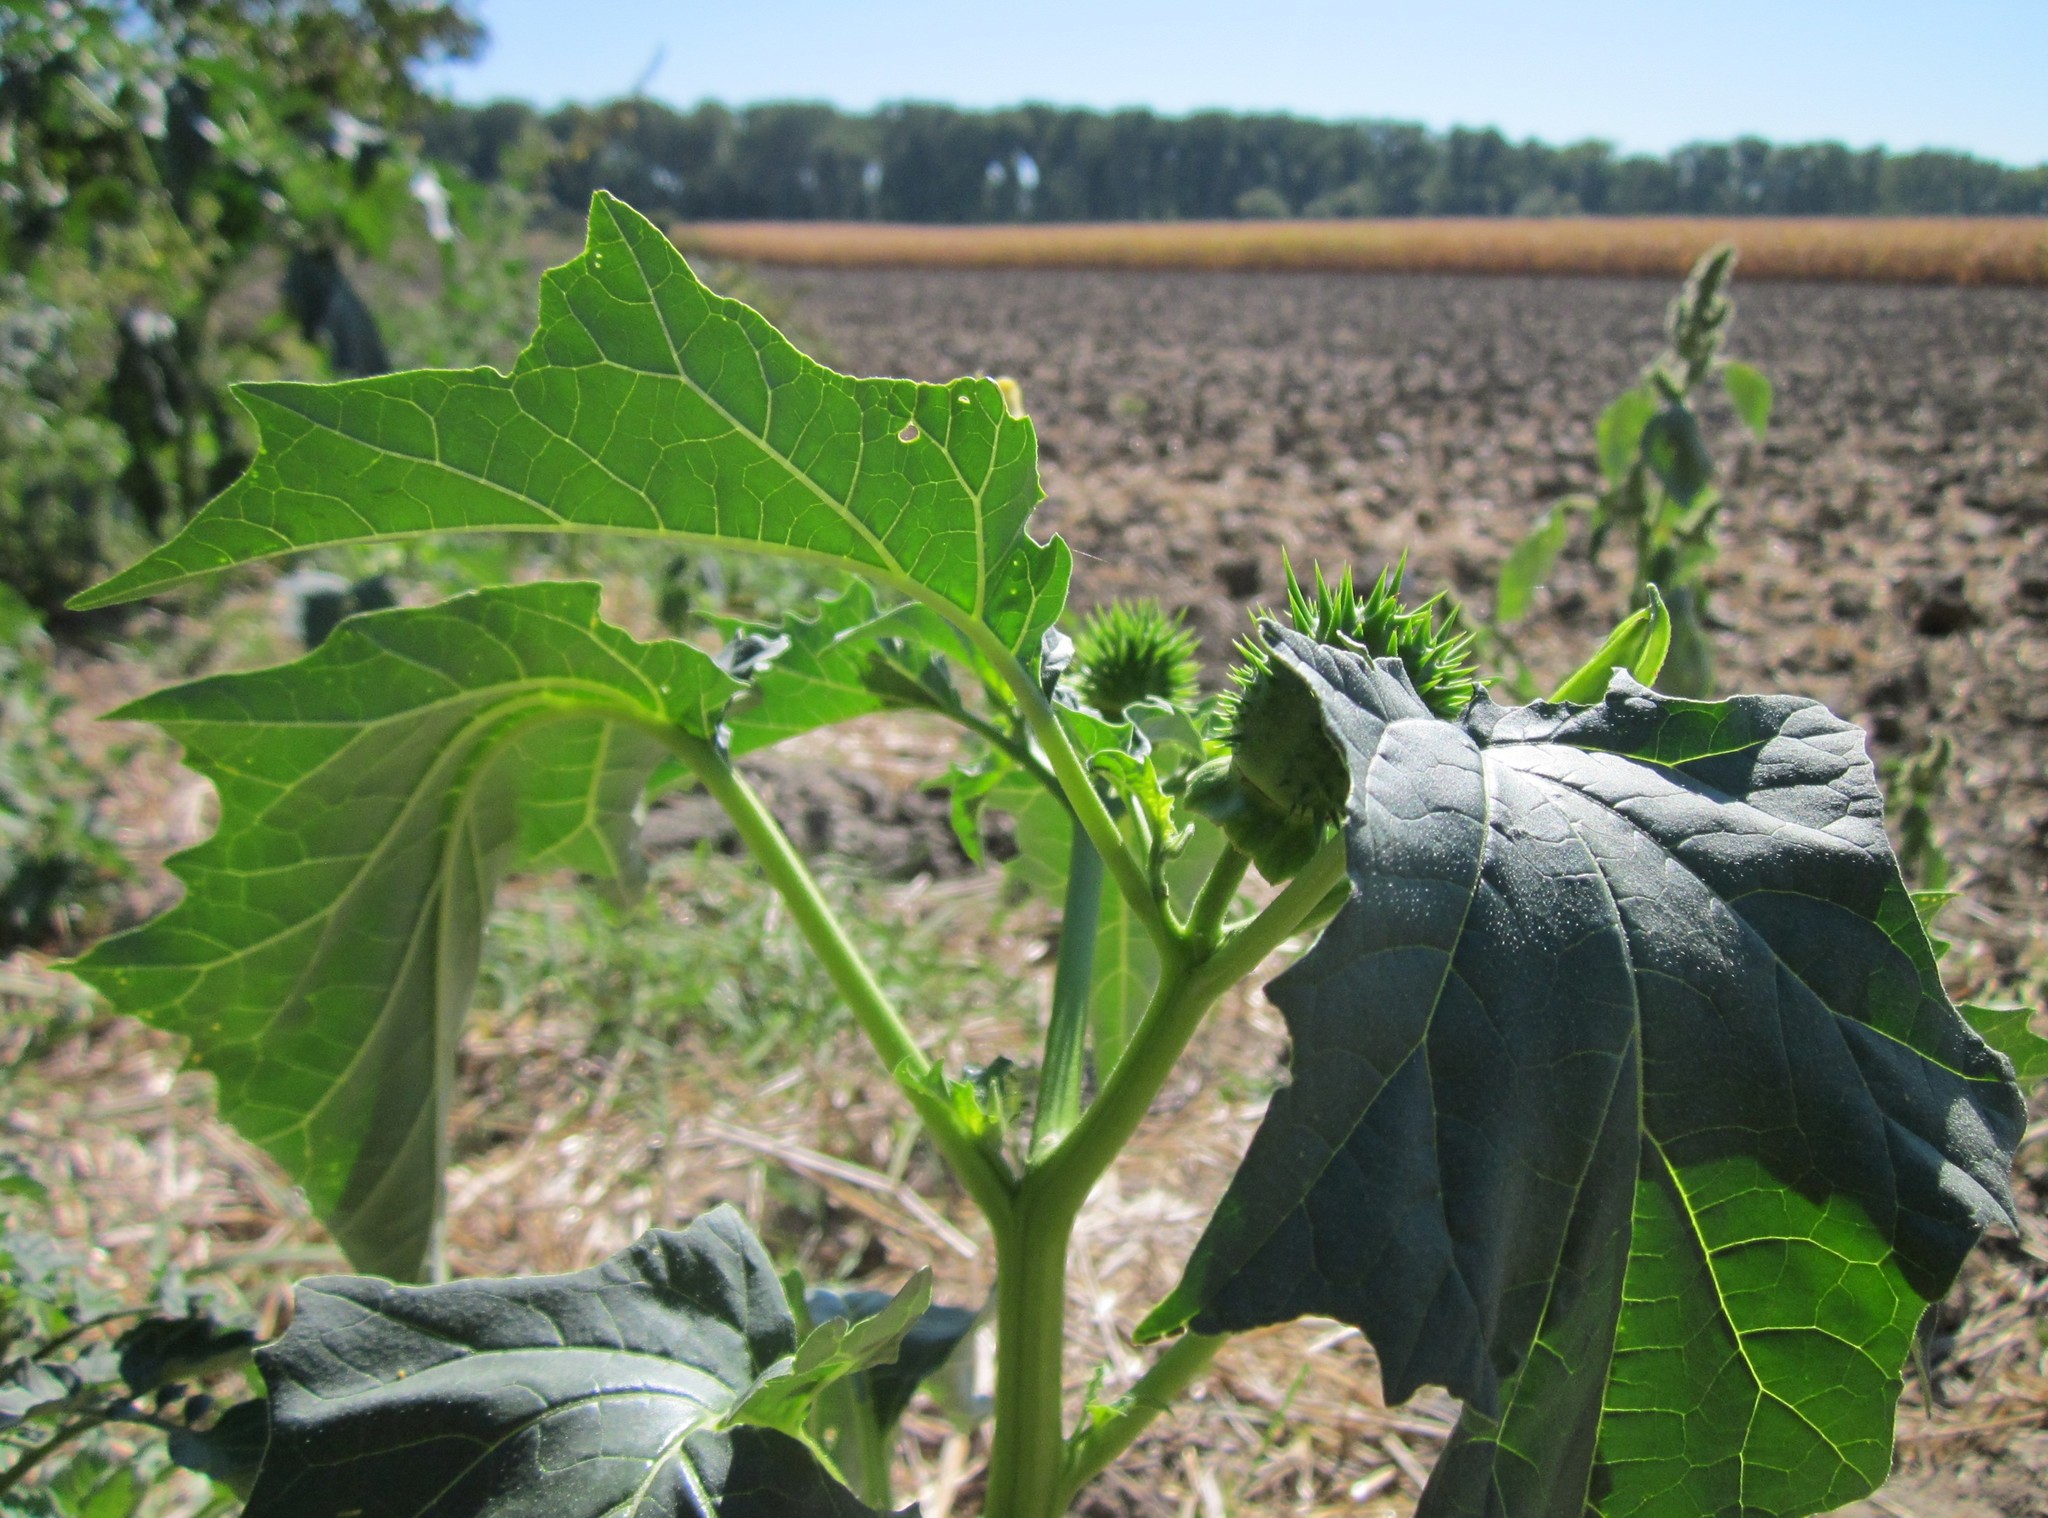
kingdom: Plantae
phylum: Tracheophyta
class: Magnoliopsida
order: Solanales
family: Solanaceae
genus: Datura
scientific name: Datura stramonium
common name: Thorn-apple
